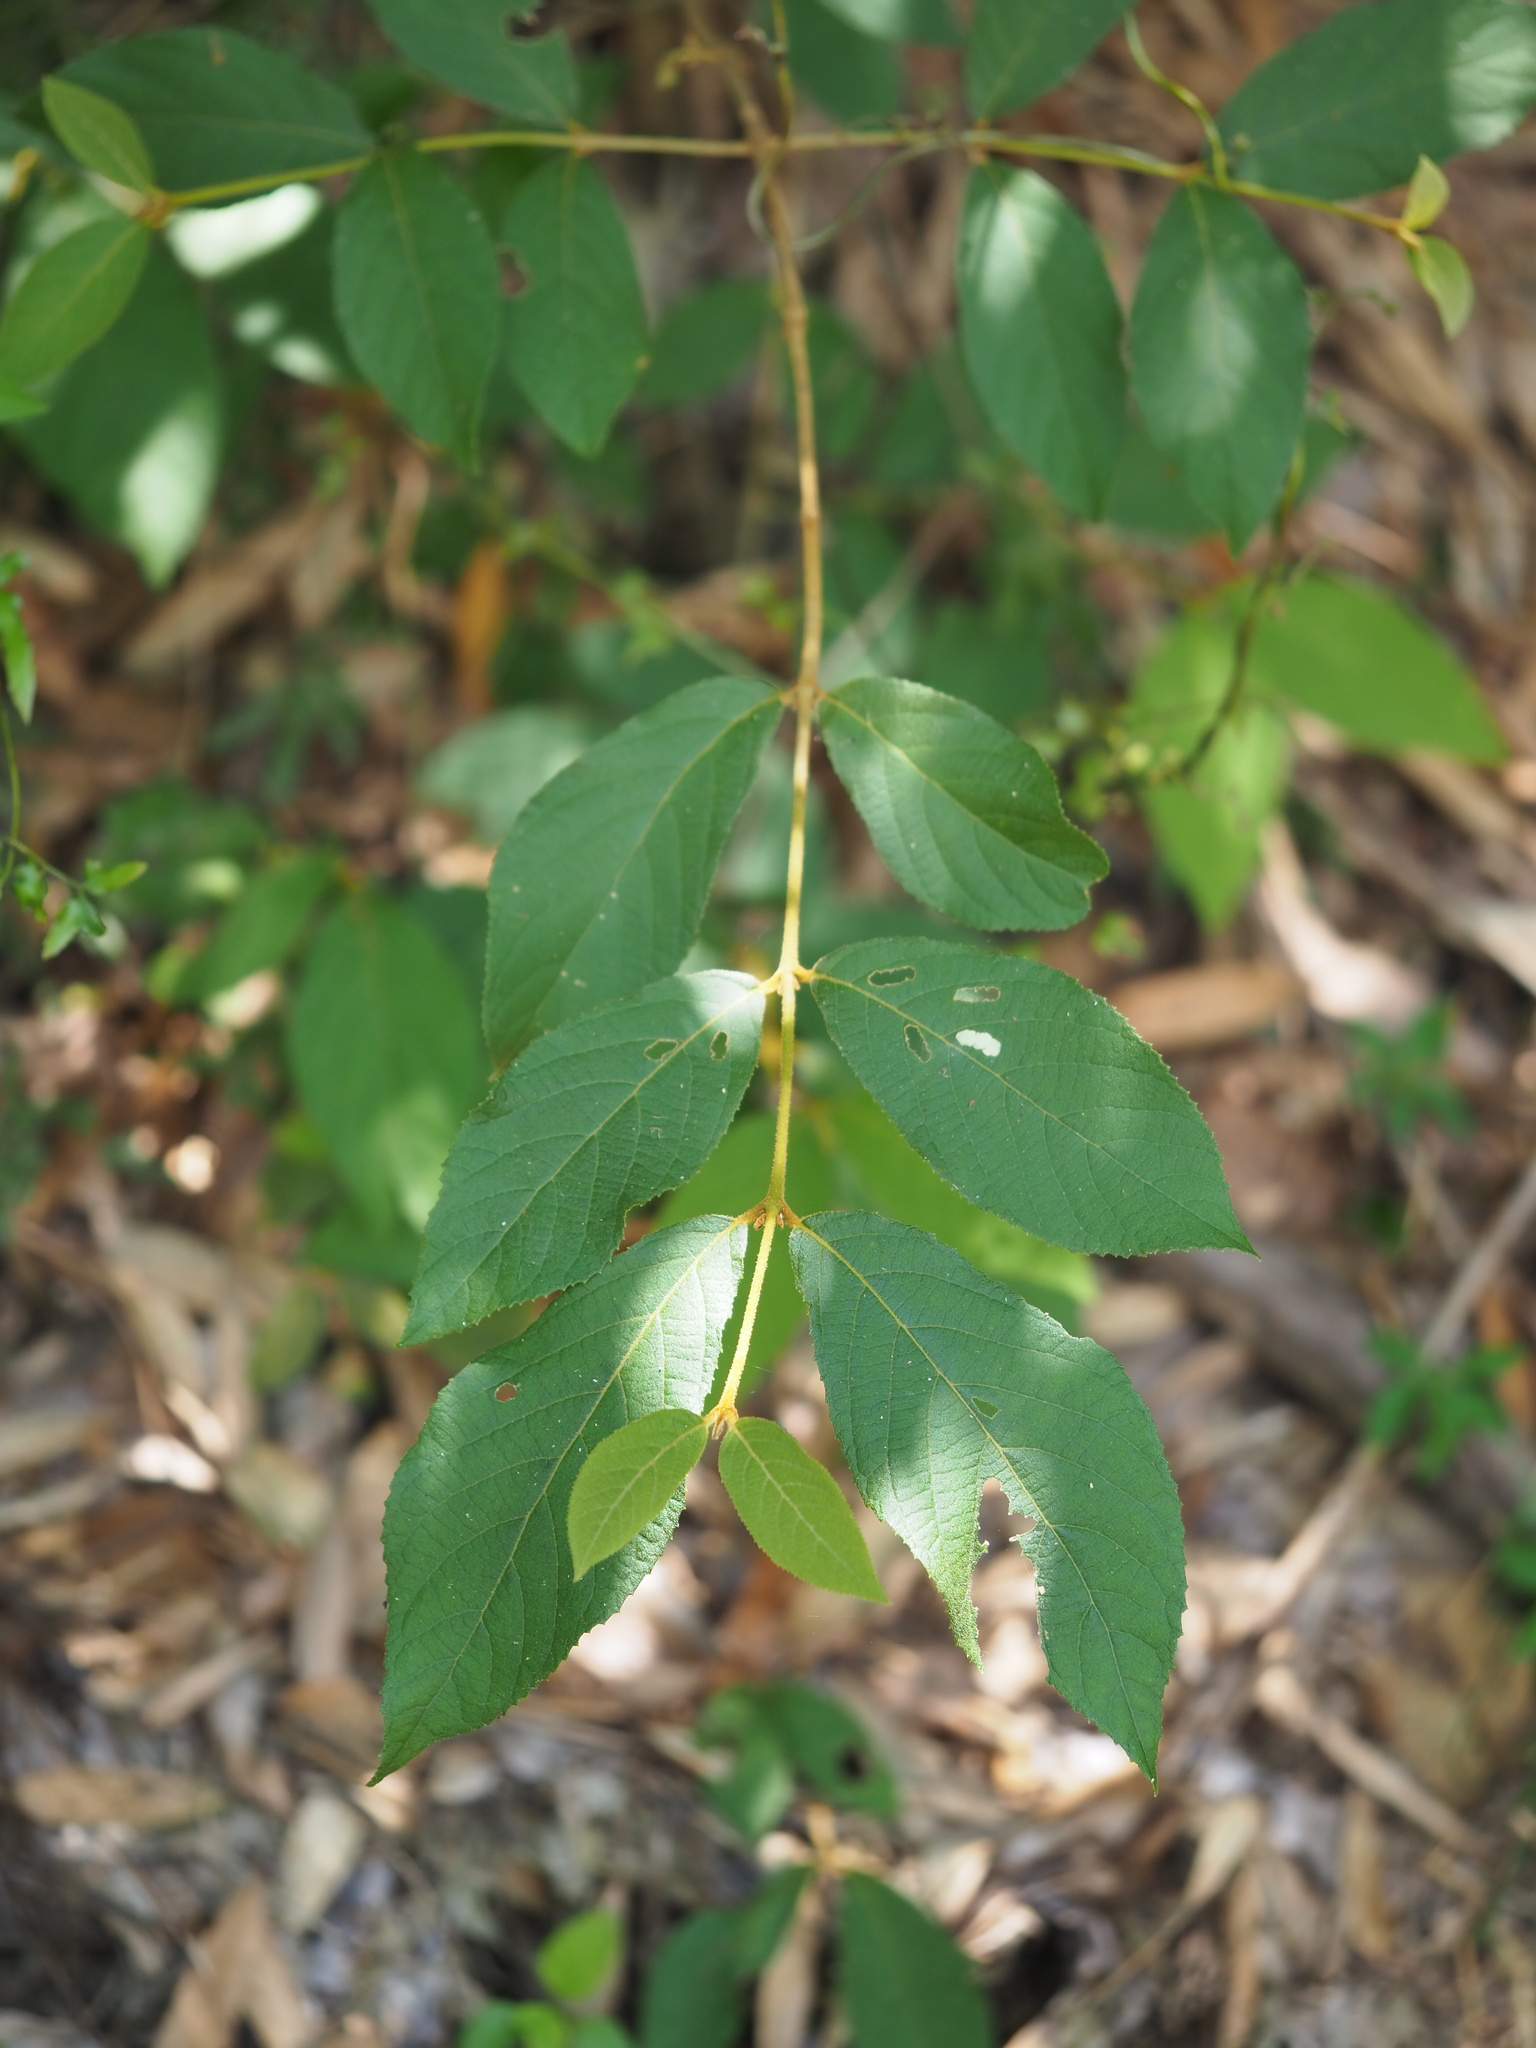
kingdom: Plantae
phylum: Tracheophyta
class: Magnoliopsida
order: Lamiales
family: Lamiaceae
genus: Callicarpa
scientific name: Callicarpa pedunculata
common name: Velvetleaf
